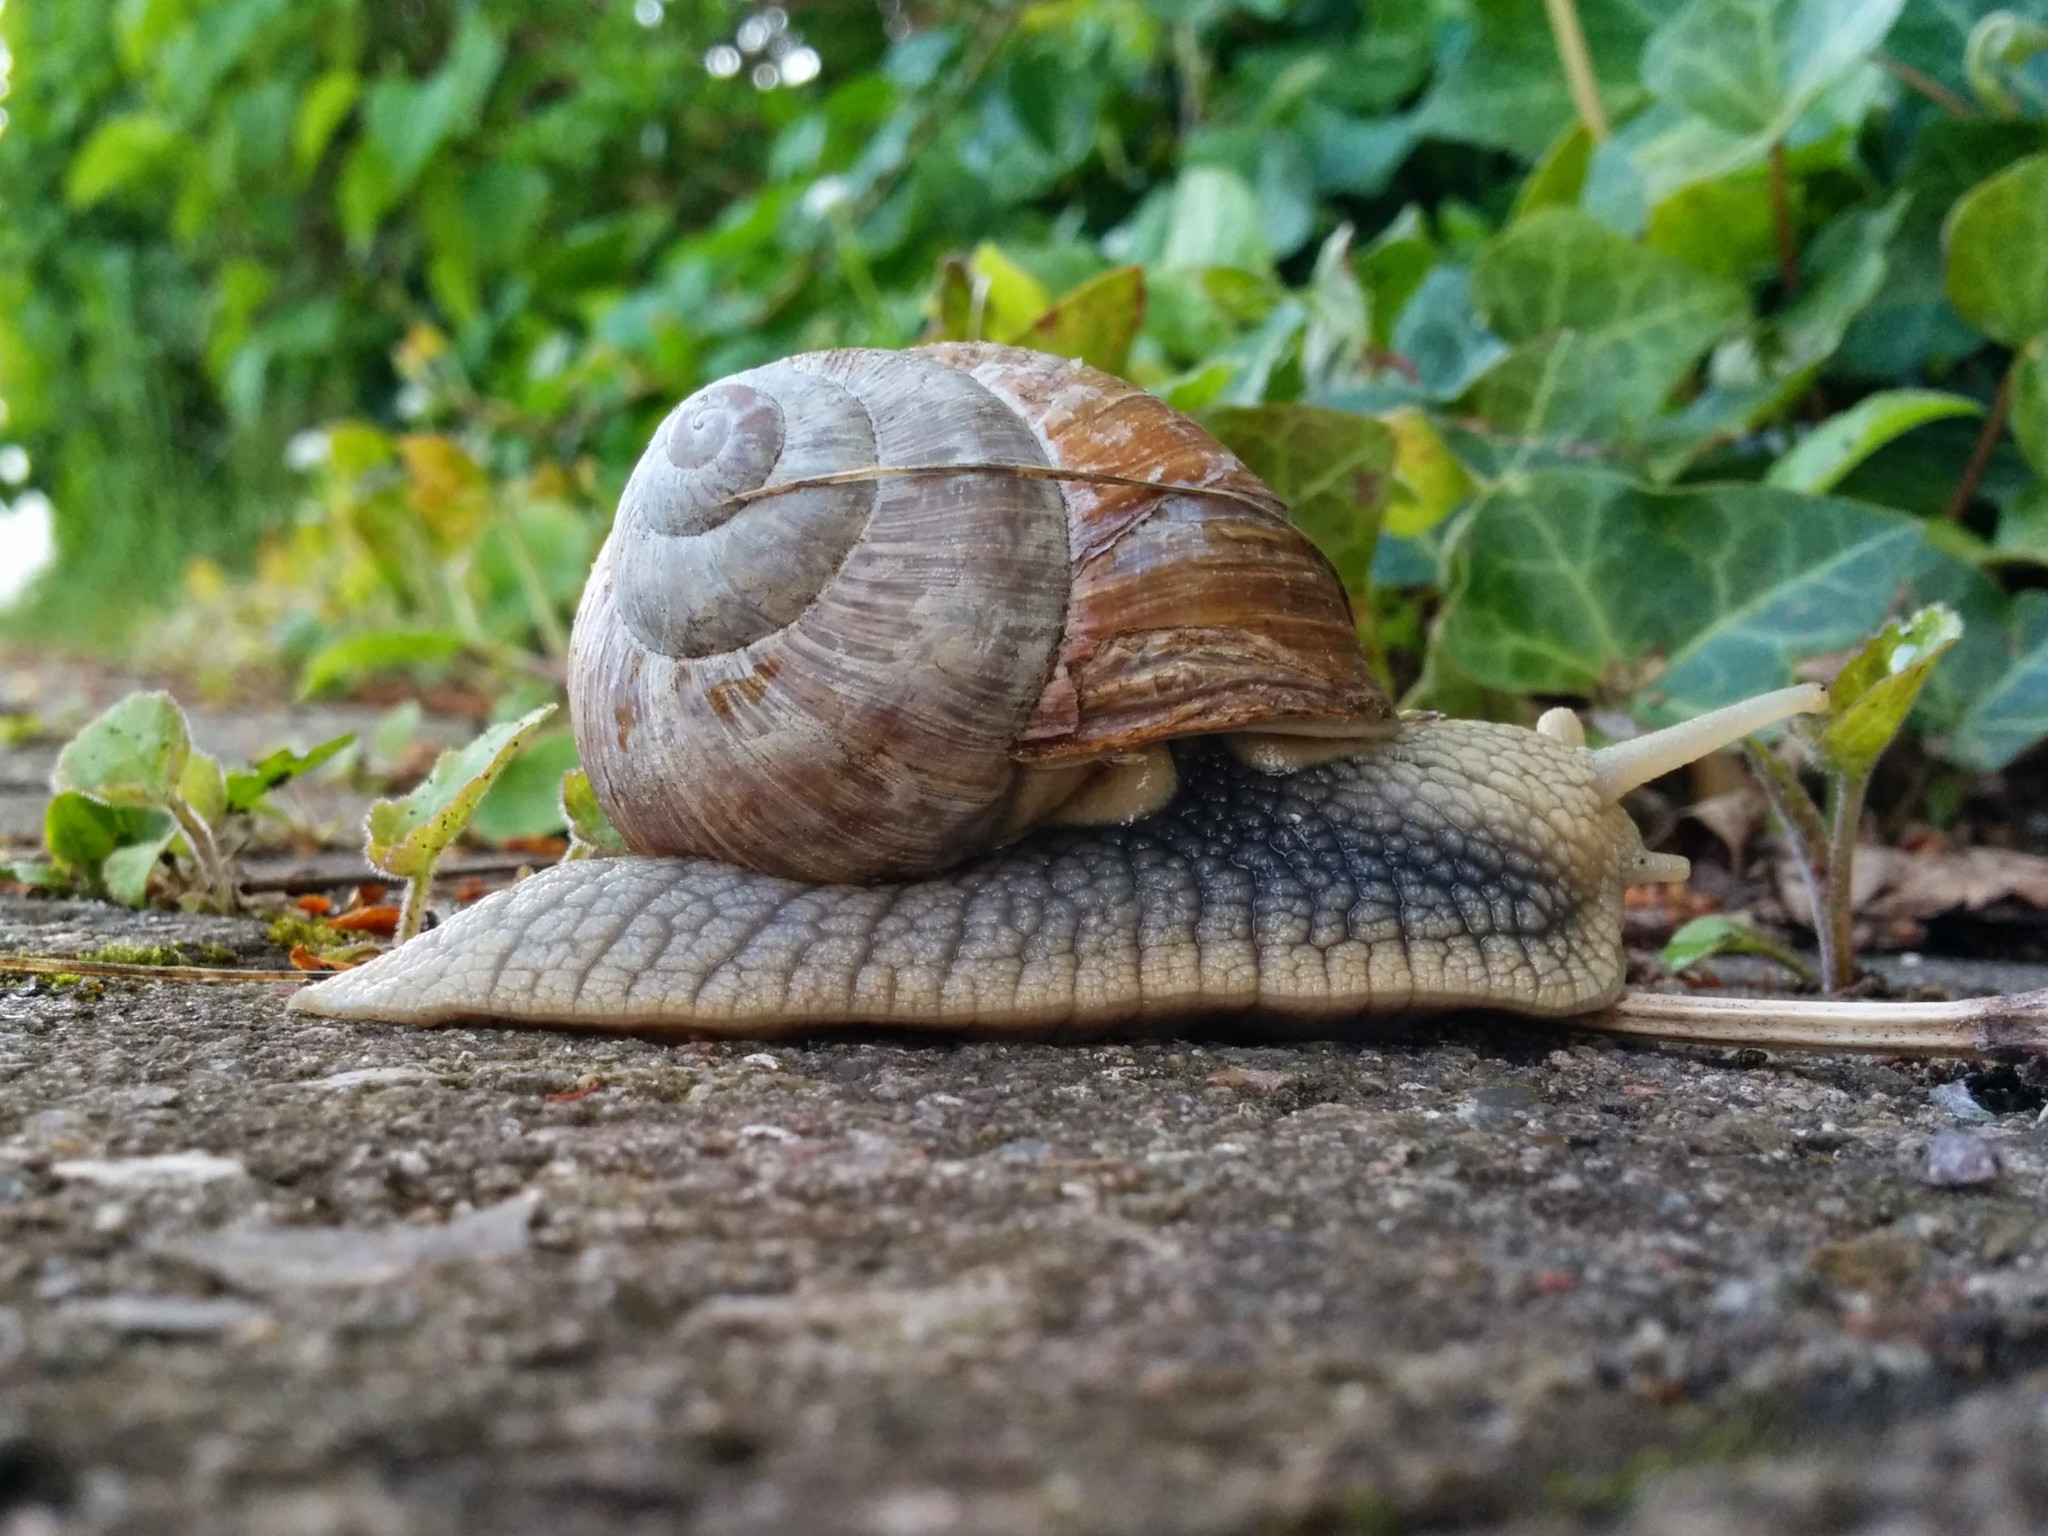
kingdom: Animalia
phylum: Mollusca
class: Gastropoda
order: Stylommatophora
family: Helicidae
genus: Helix
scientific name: Helix pomatia
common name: Roman snail
